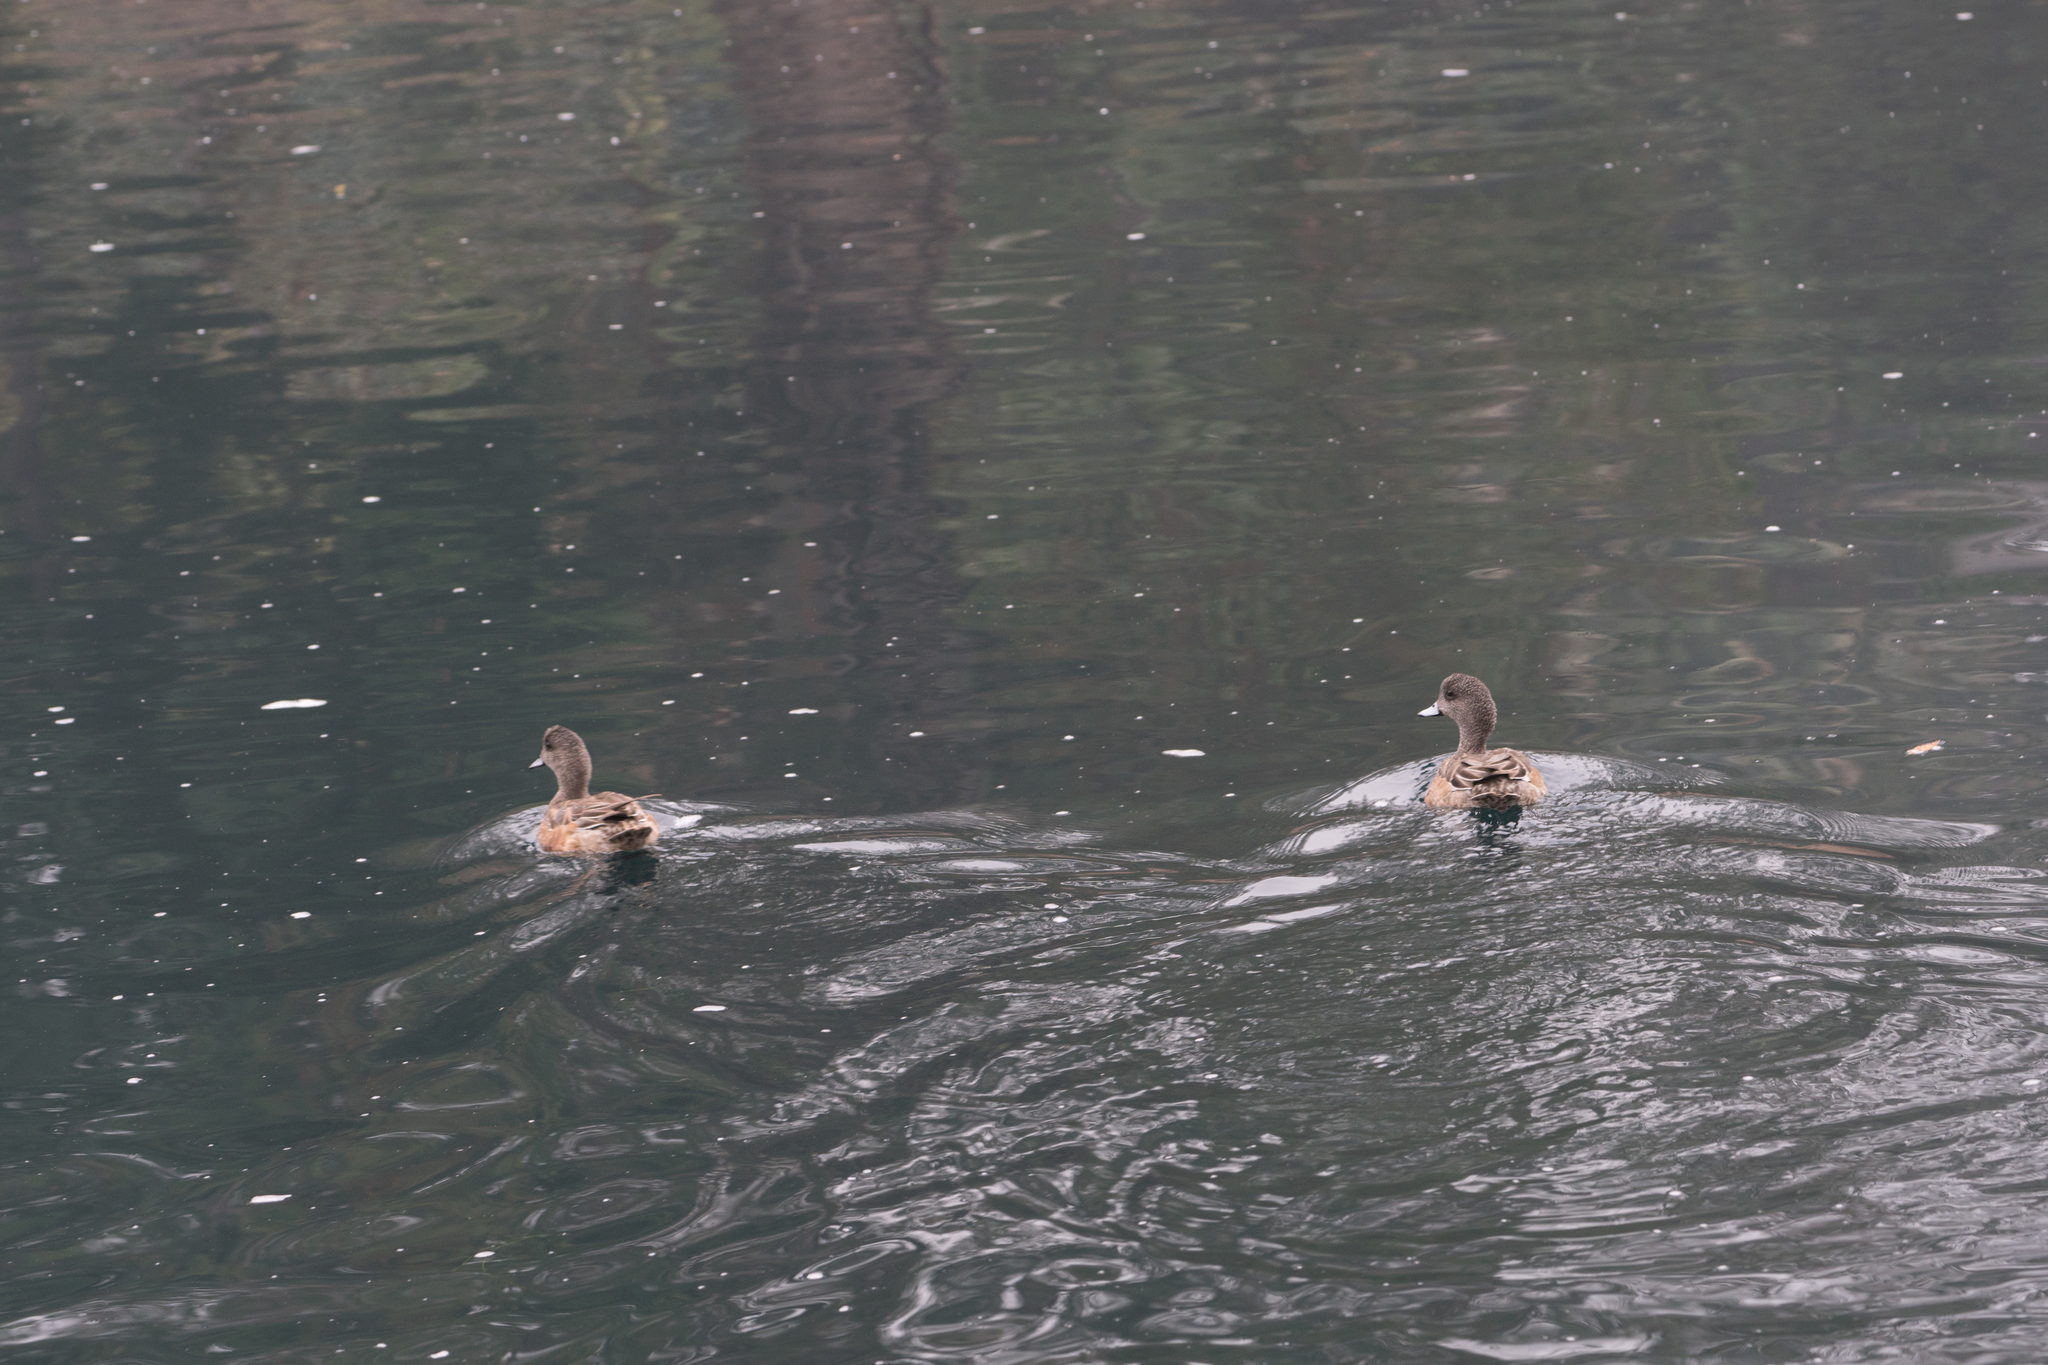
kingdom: Animalia
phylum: Chordata
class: Aves
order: Anseriformes
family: Anatidae
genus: Mareca
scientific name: Mareca americana
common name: American wigeon
